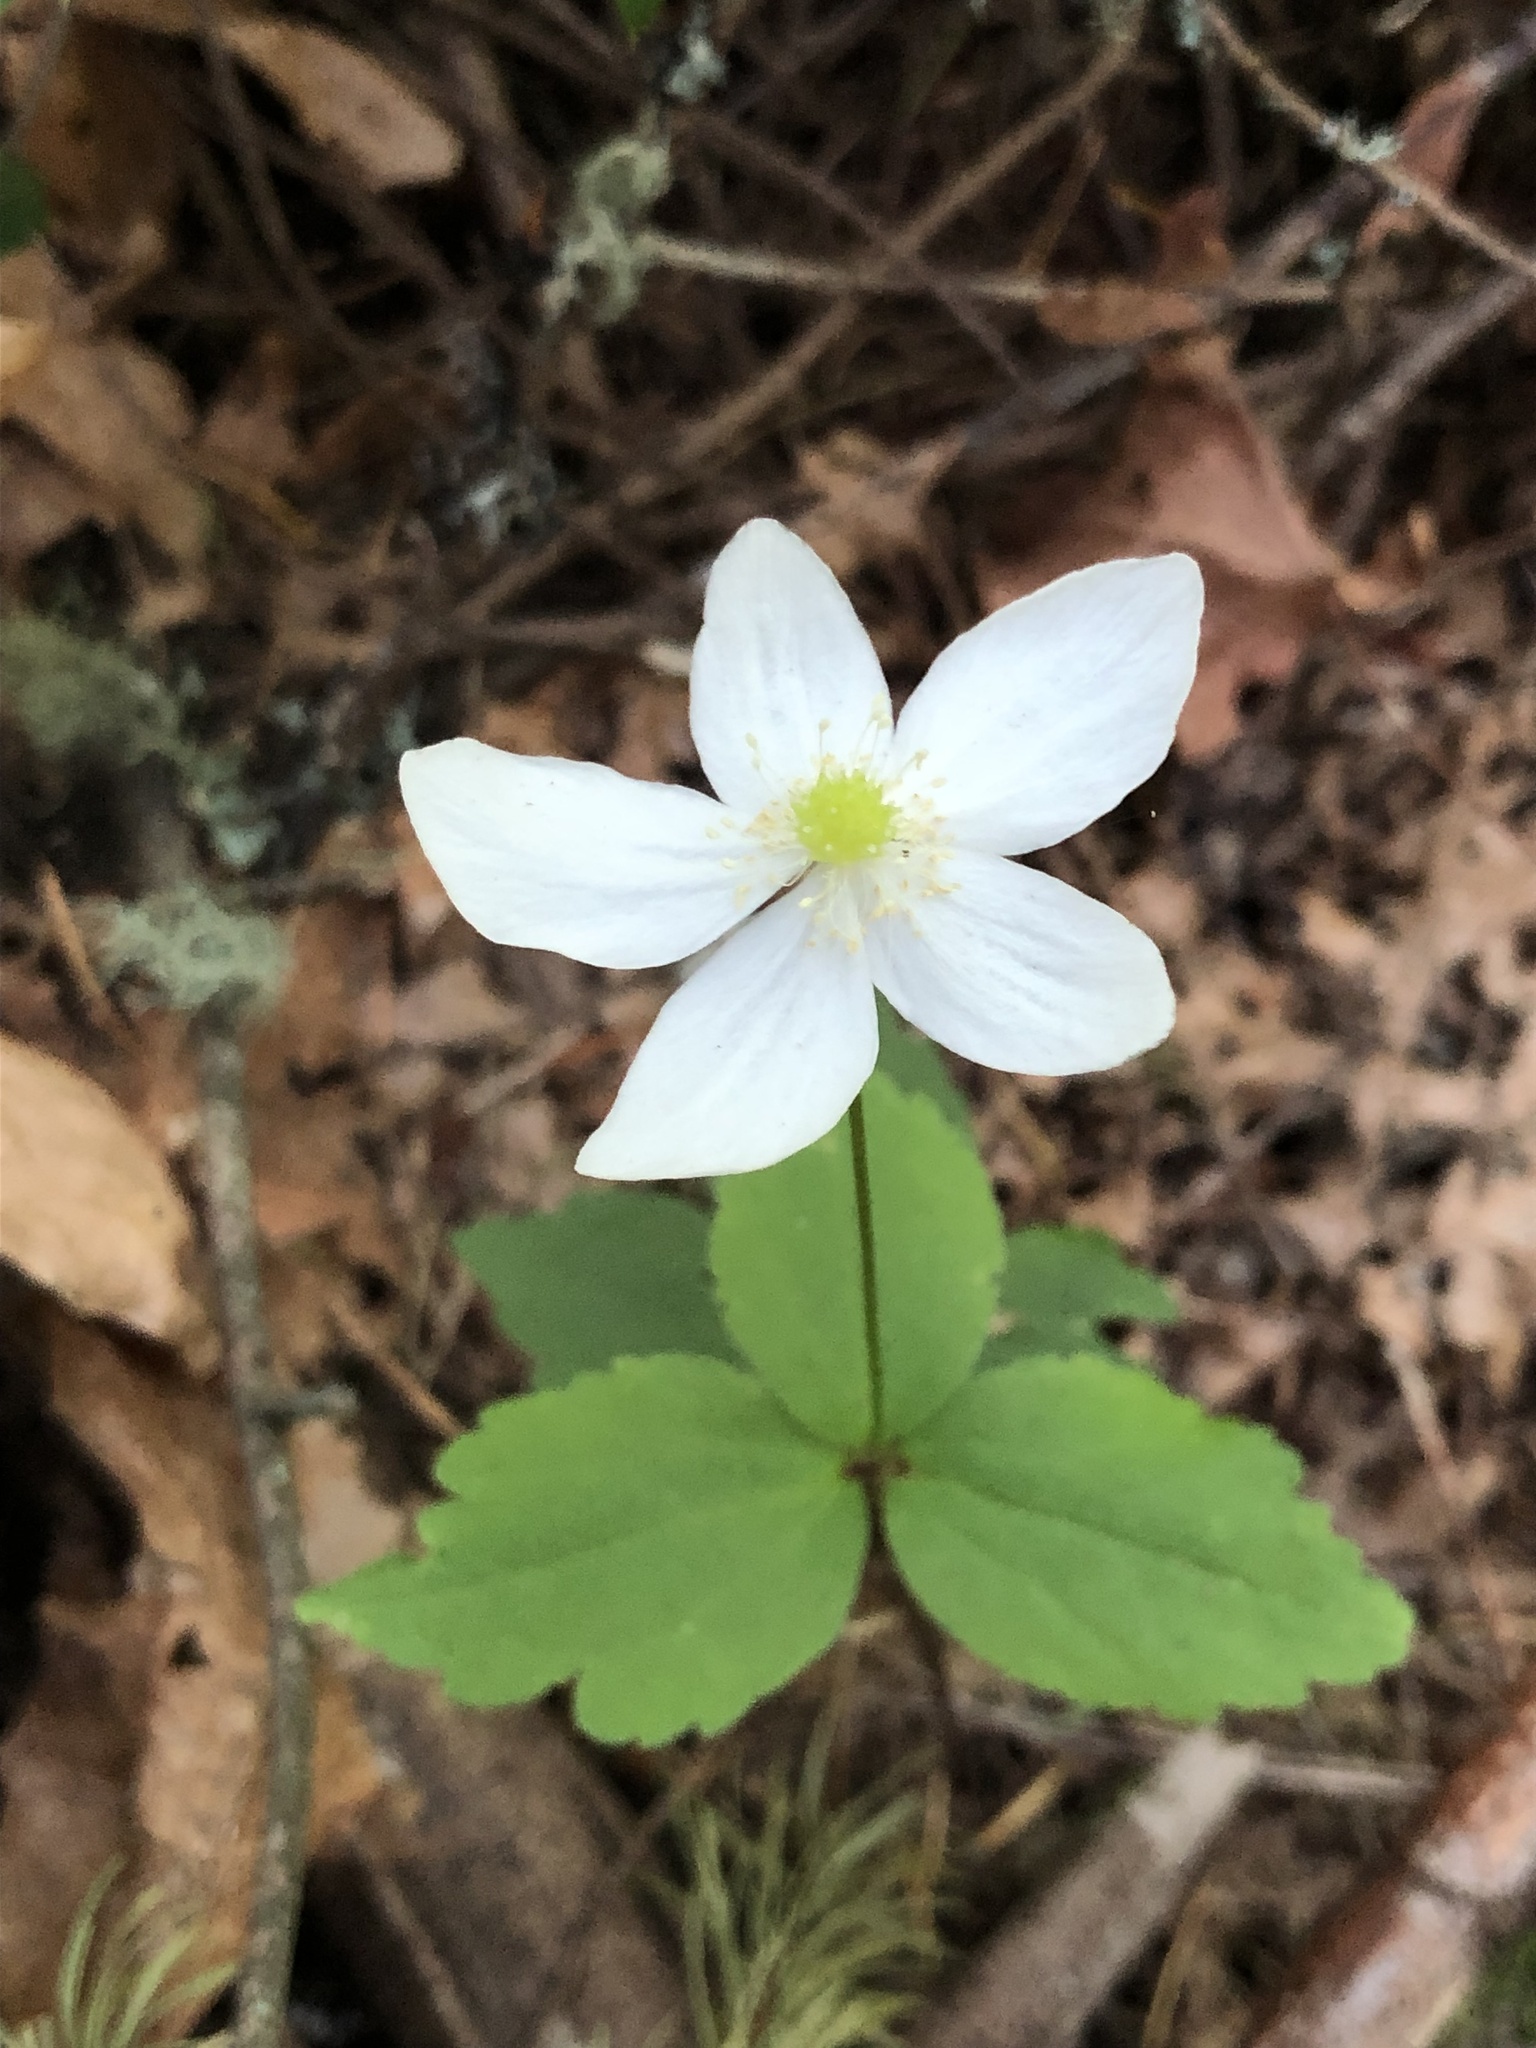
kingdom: Plantae
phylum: Tracheophyta
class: Magnoliopsida
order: Ranunculales
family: Ranunculaceae
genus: Anemonastrum
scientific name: Anemonastrum deltoideum
